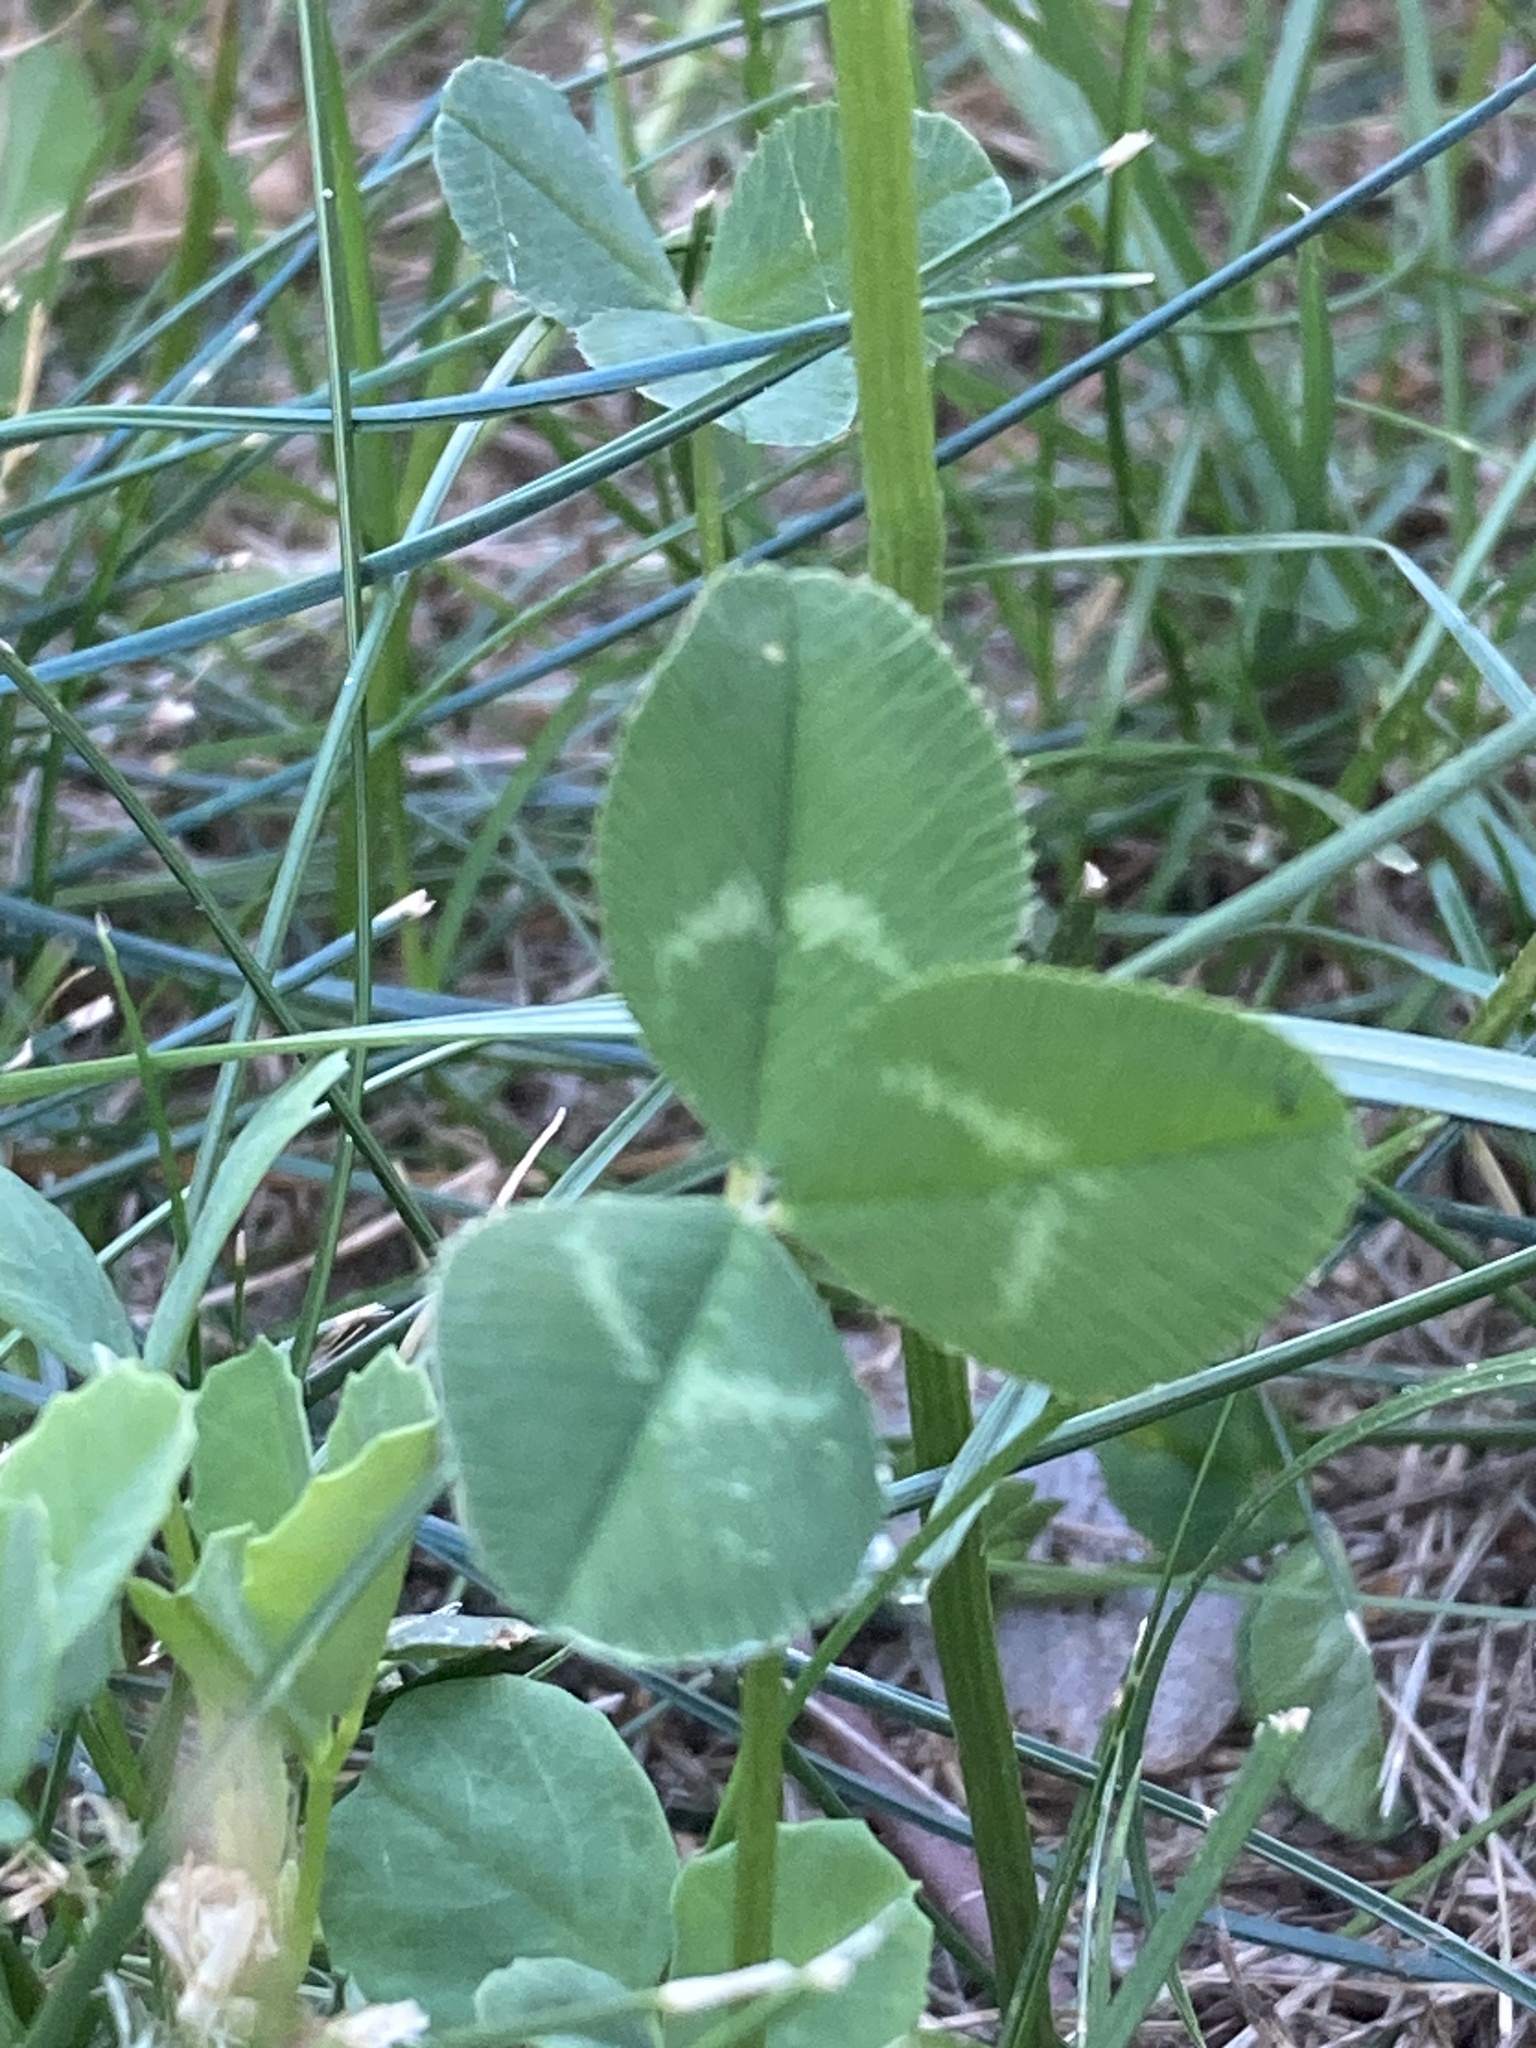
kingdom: Plantae
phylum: Tracheophyta
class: Magnoliopsida
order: Fabales
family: Fabaceae
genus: Trifolium
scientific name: Trifolium repens
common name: White clover
